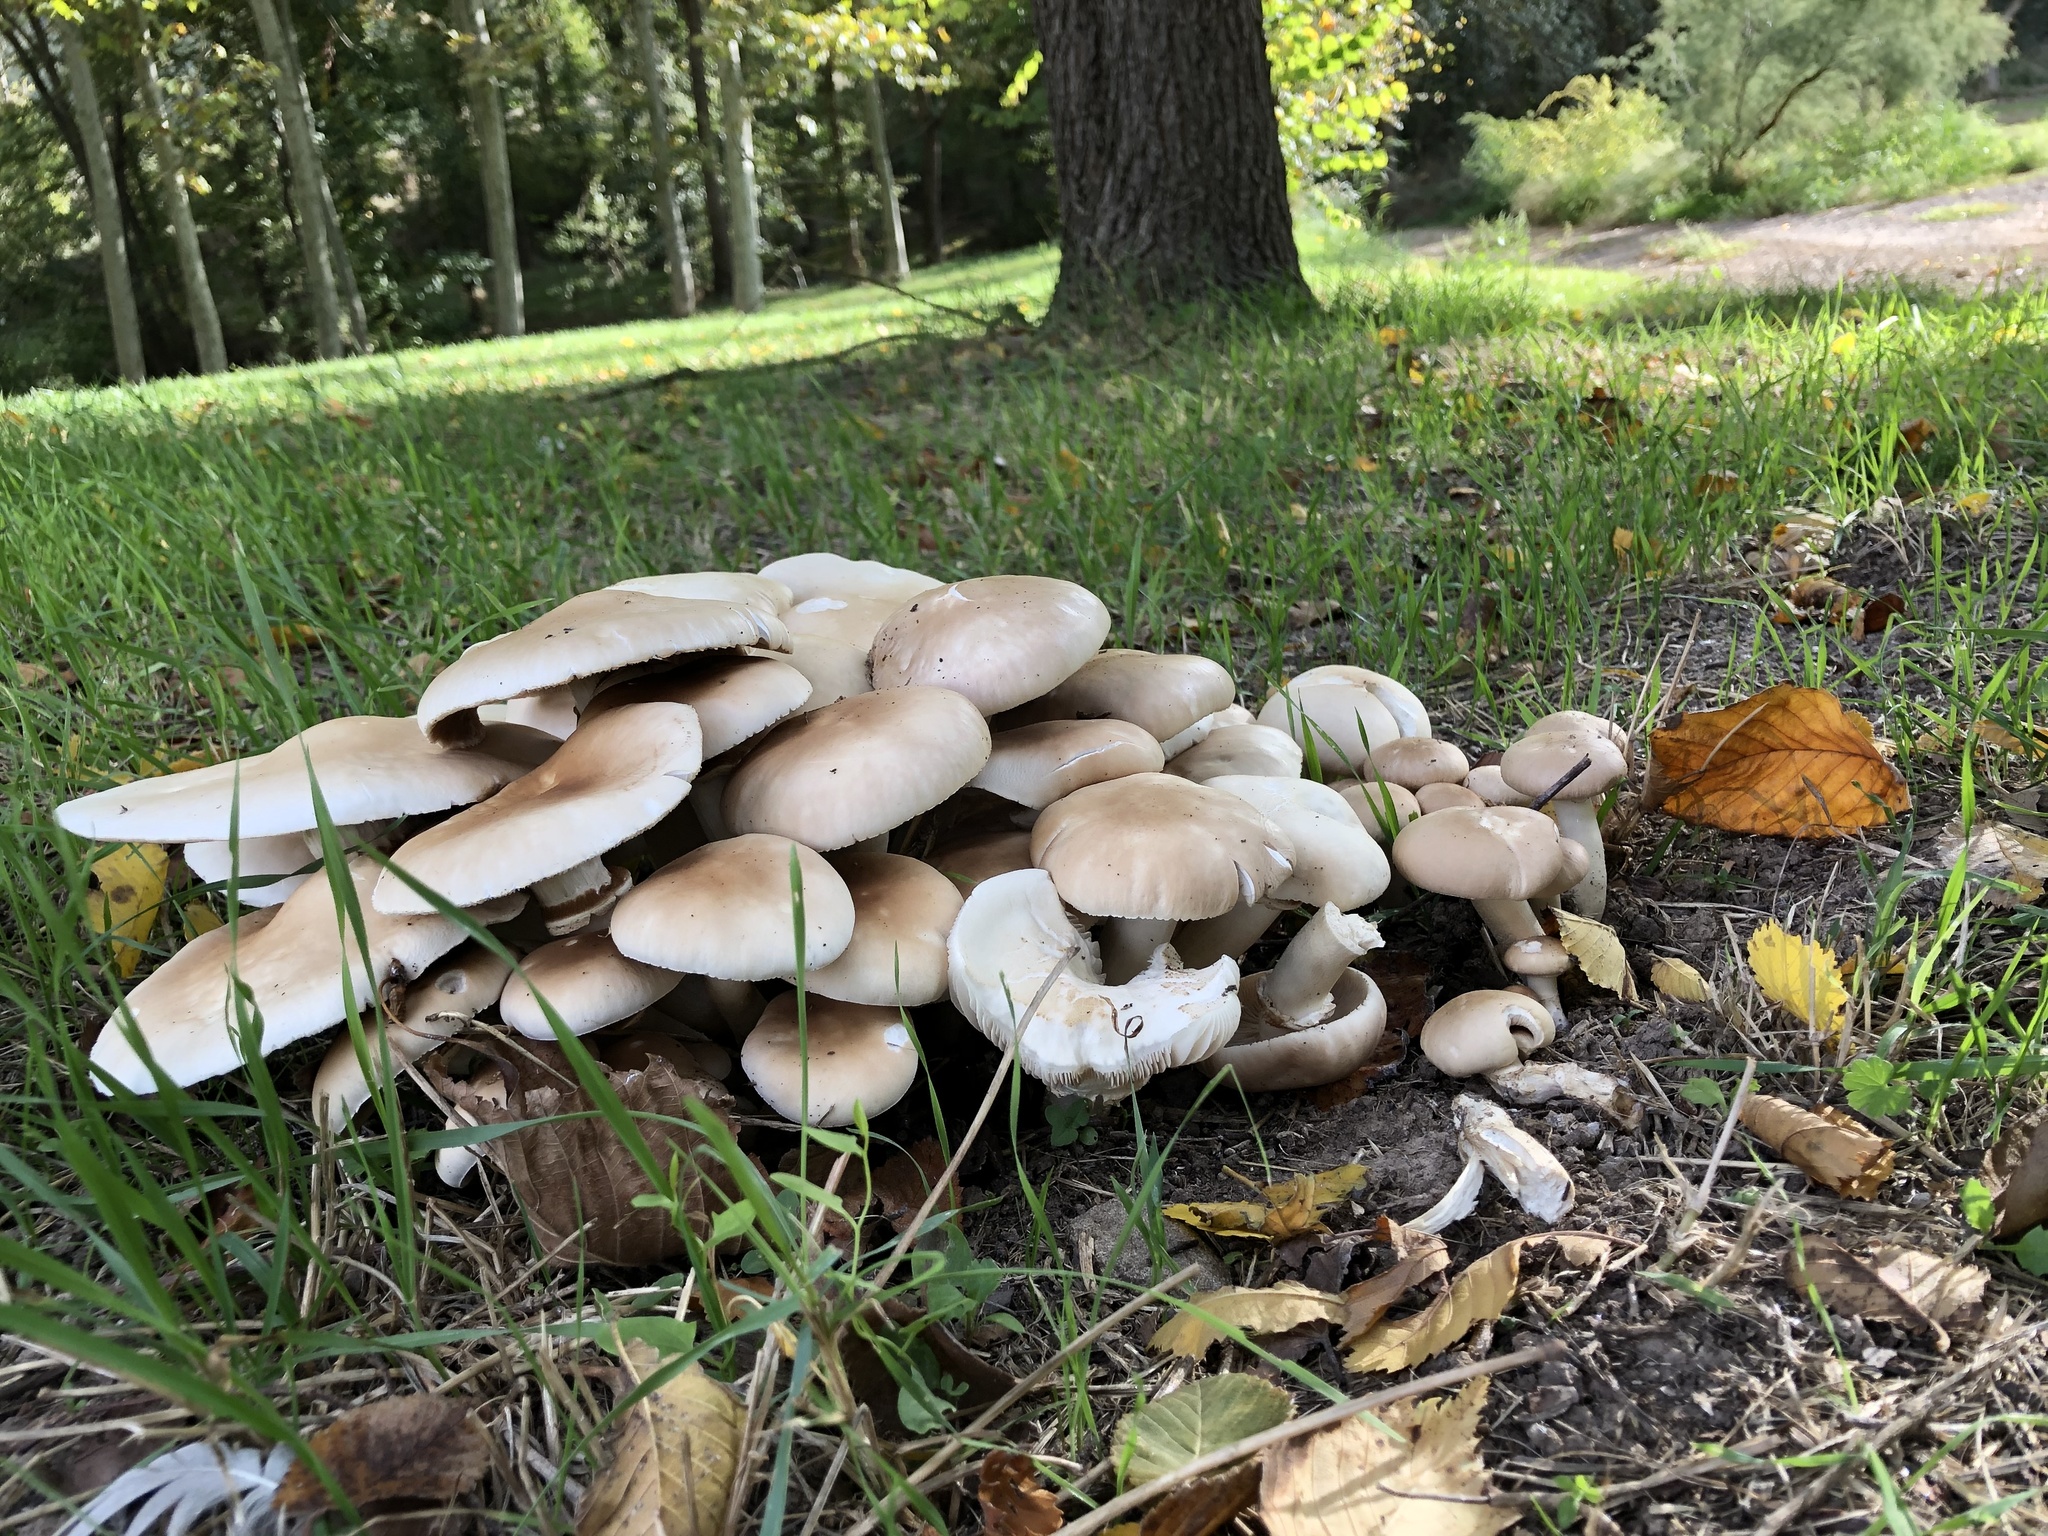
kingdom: Fungi
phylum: Basidiomycota
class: Agaricomycetes
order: Agaricales
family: Tubariaceae
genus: Cyclocybe
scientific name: Cyclocybe cylindracea
